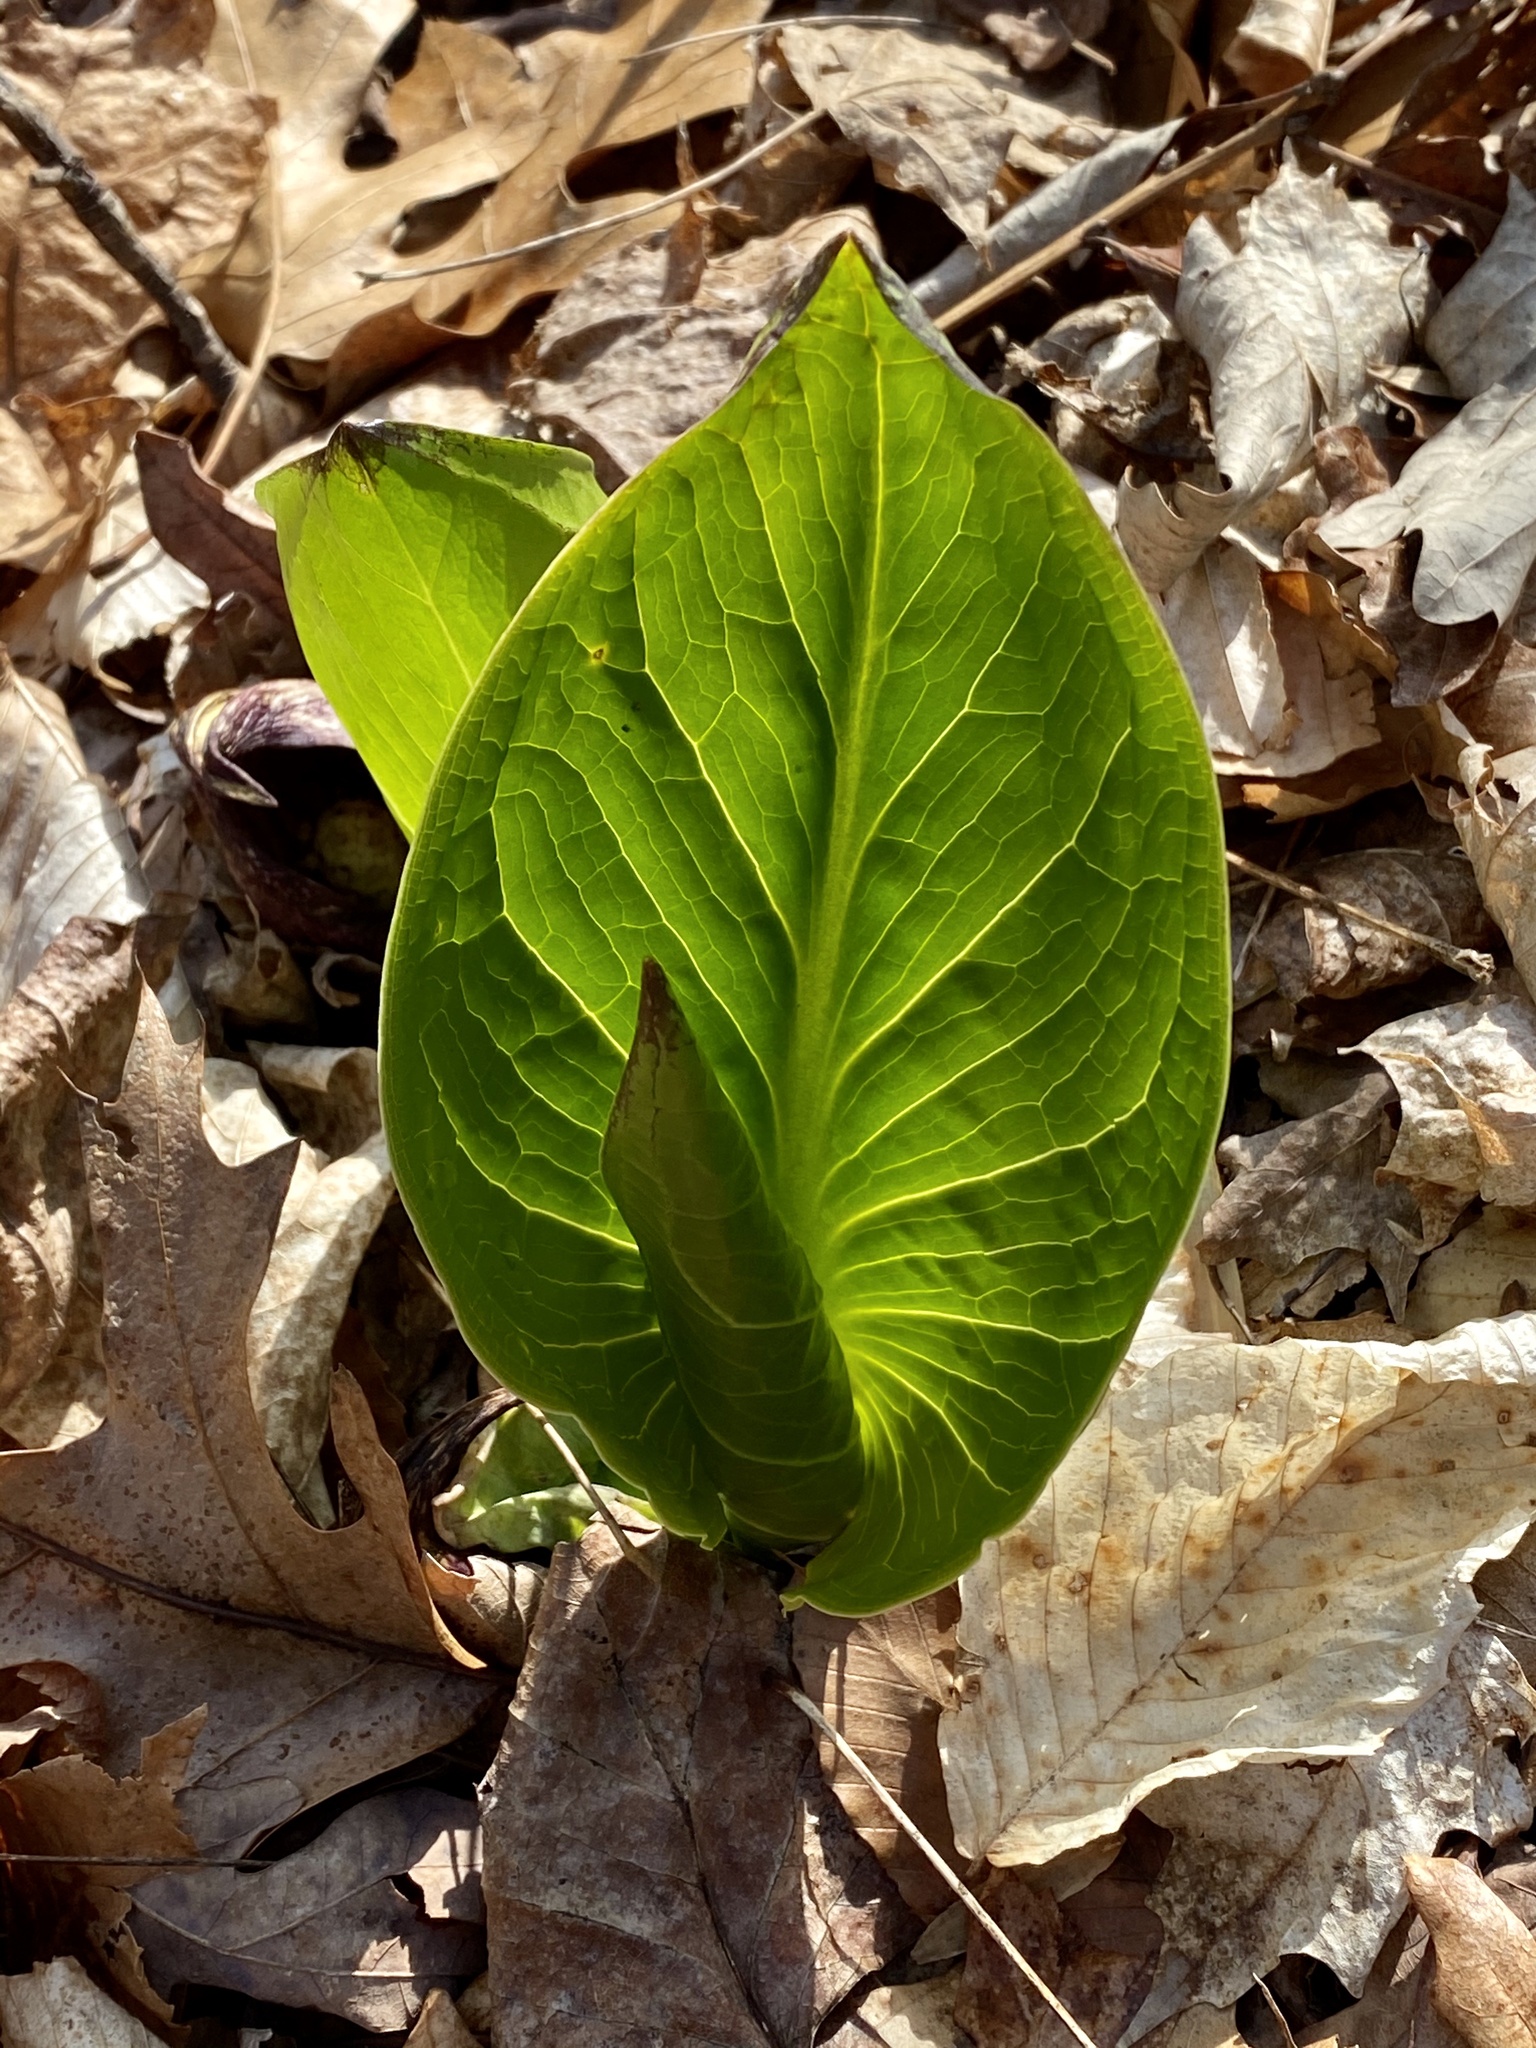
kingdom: Plantae
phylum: Tracheophyta
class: Liliopsida
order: Alismatales
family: Araceae
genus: Symplocarpus
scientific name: Symplocarpus foetidus
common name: Eastern skunk cabbage
